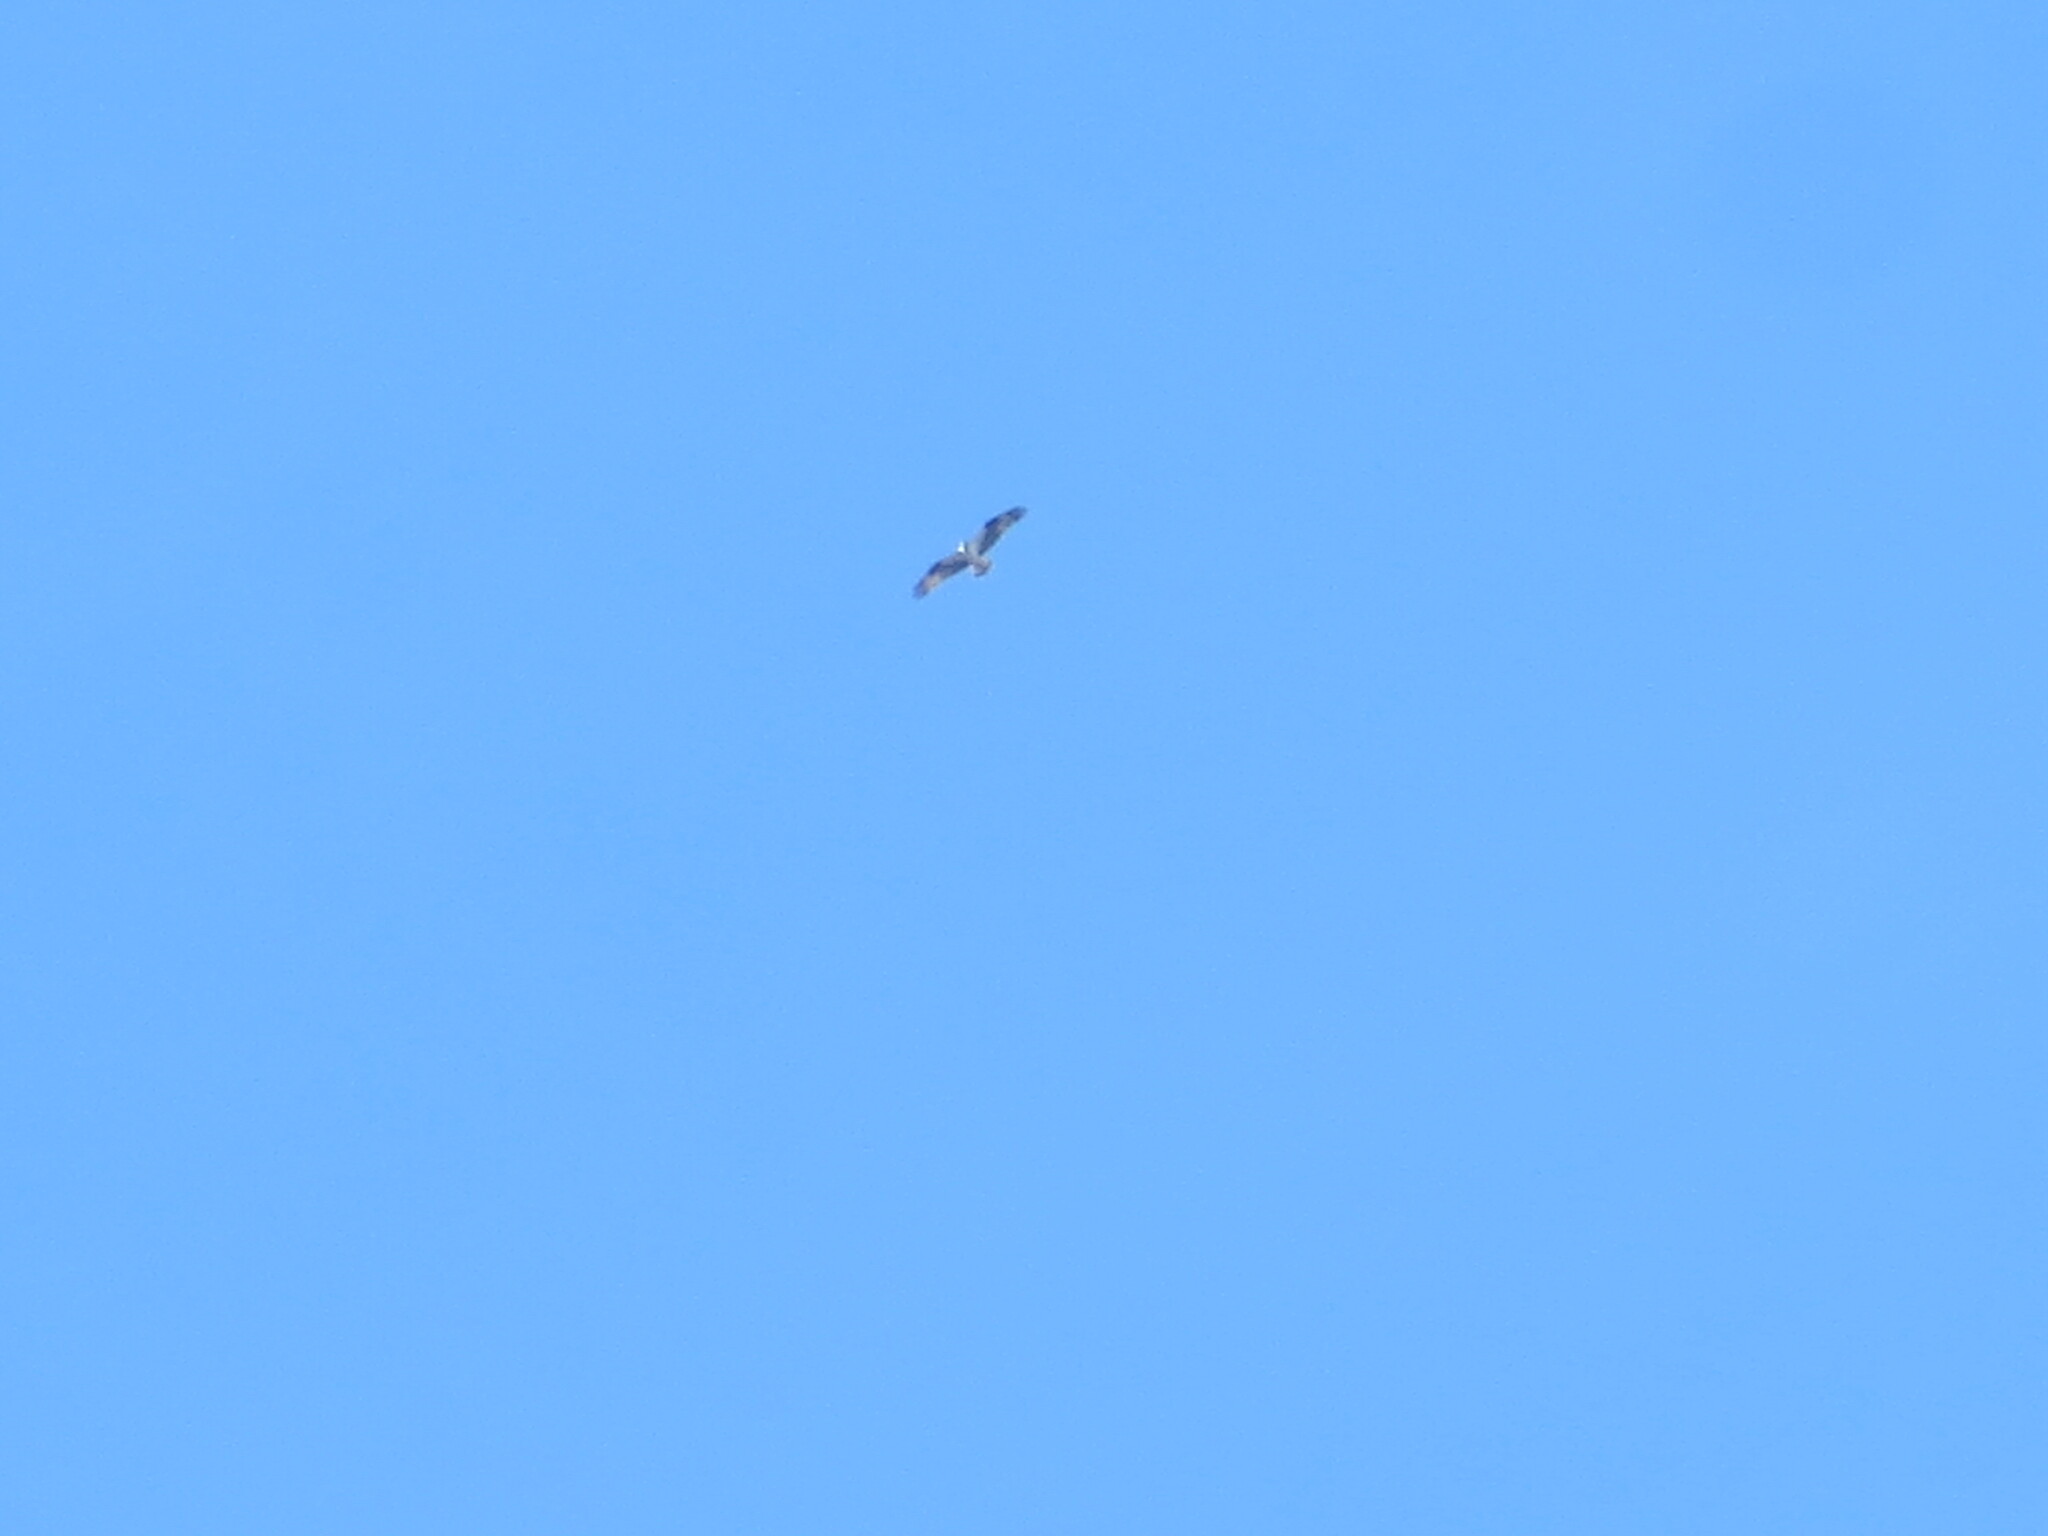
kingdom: Animalia
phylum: Chordata
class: Aves
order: Accipitriformes
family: Pandionidae
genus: Pandion
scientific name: Pandion haliaetus
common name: Osprey
